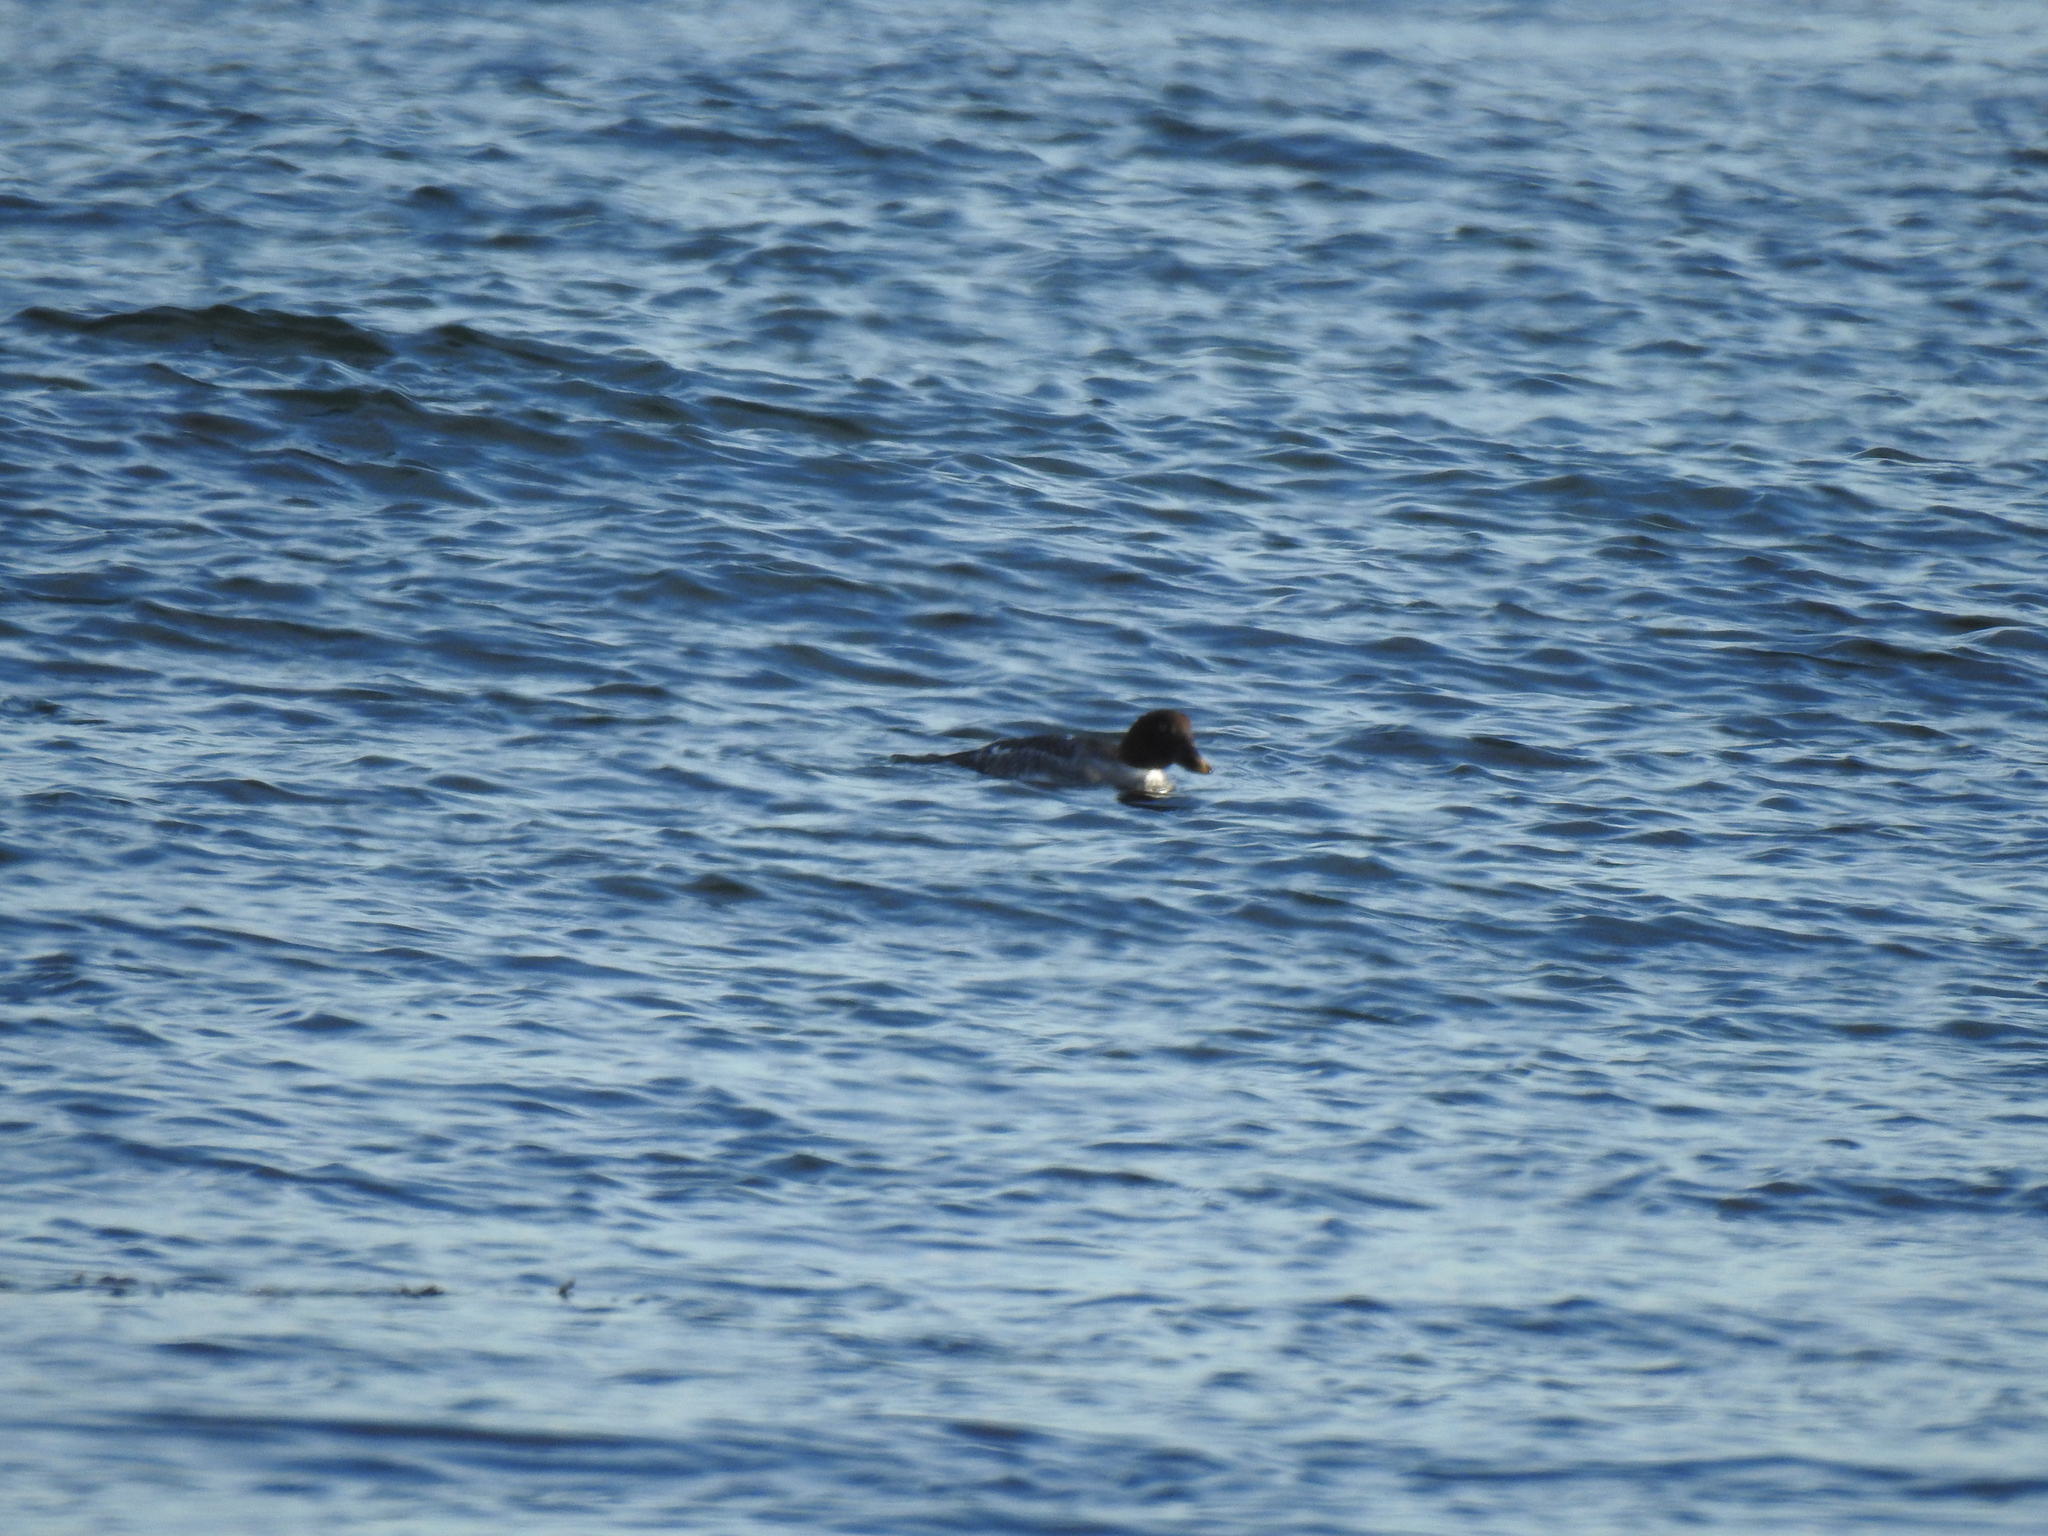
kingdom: Animalia
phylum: Chordata
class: Aves
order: Anseriformes
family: Anatidae
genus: Bucephala
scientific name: Bucephala clangula
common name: Common goldeneye
